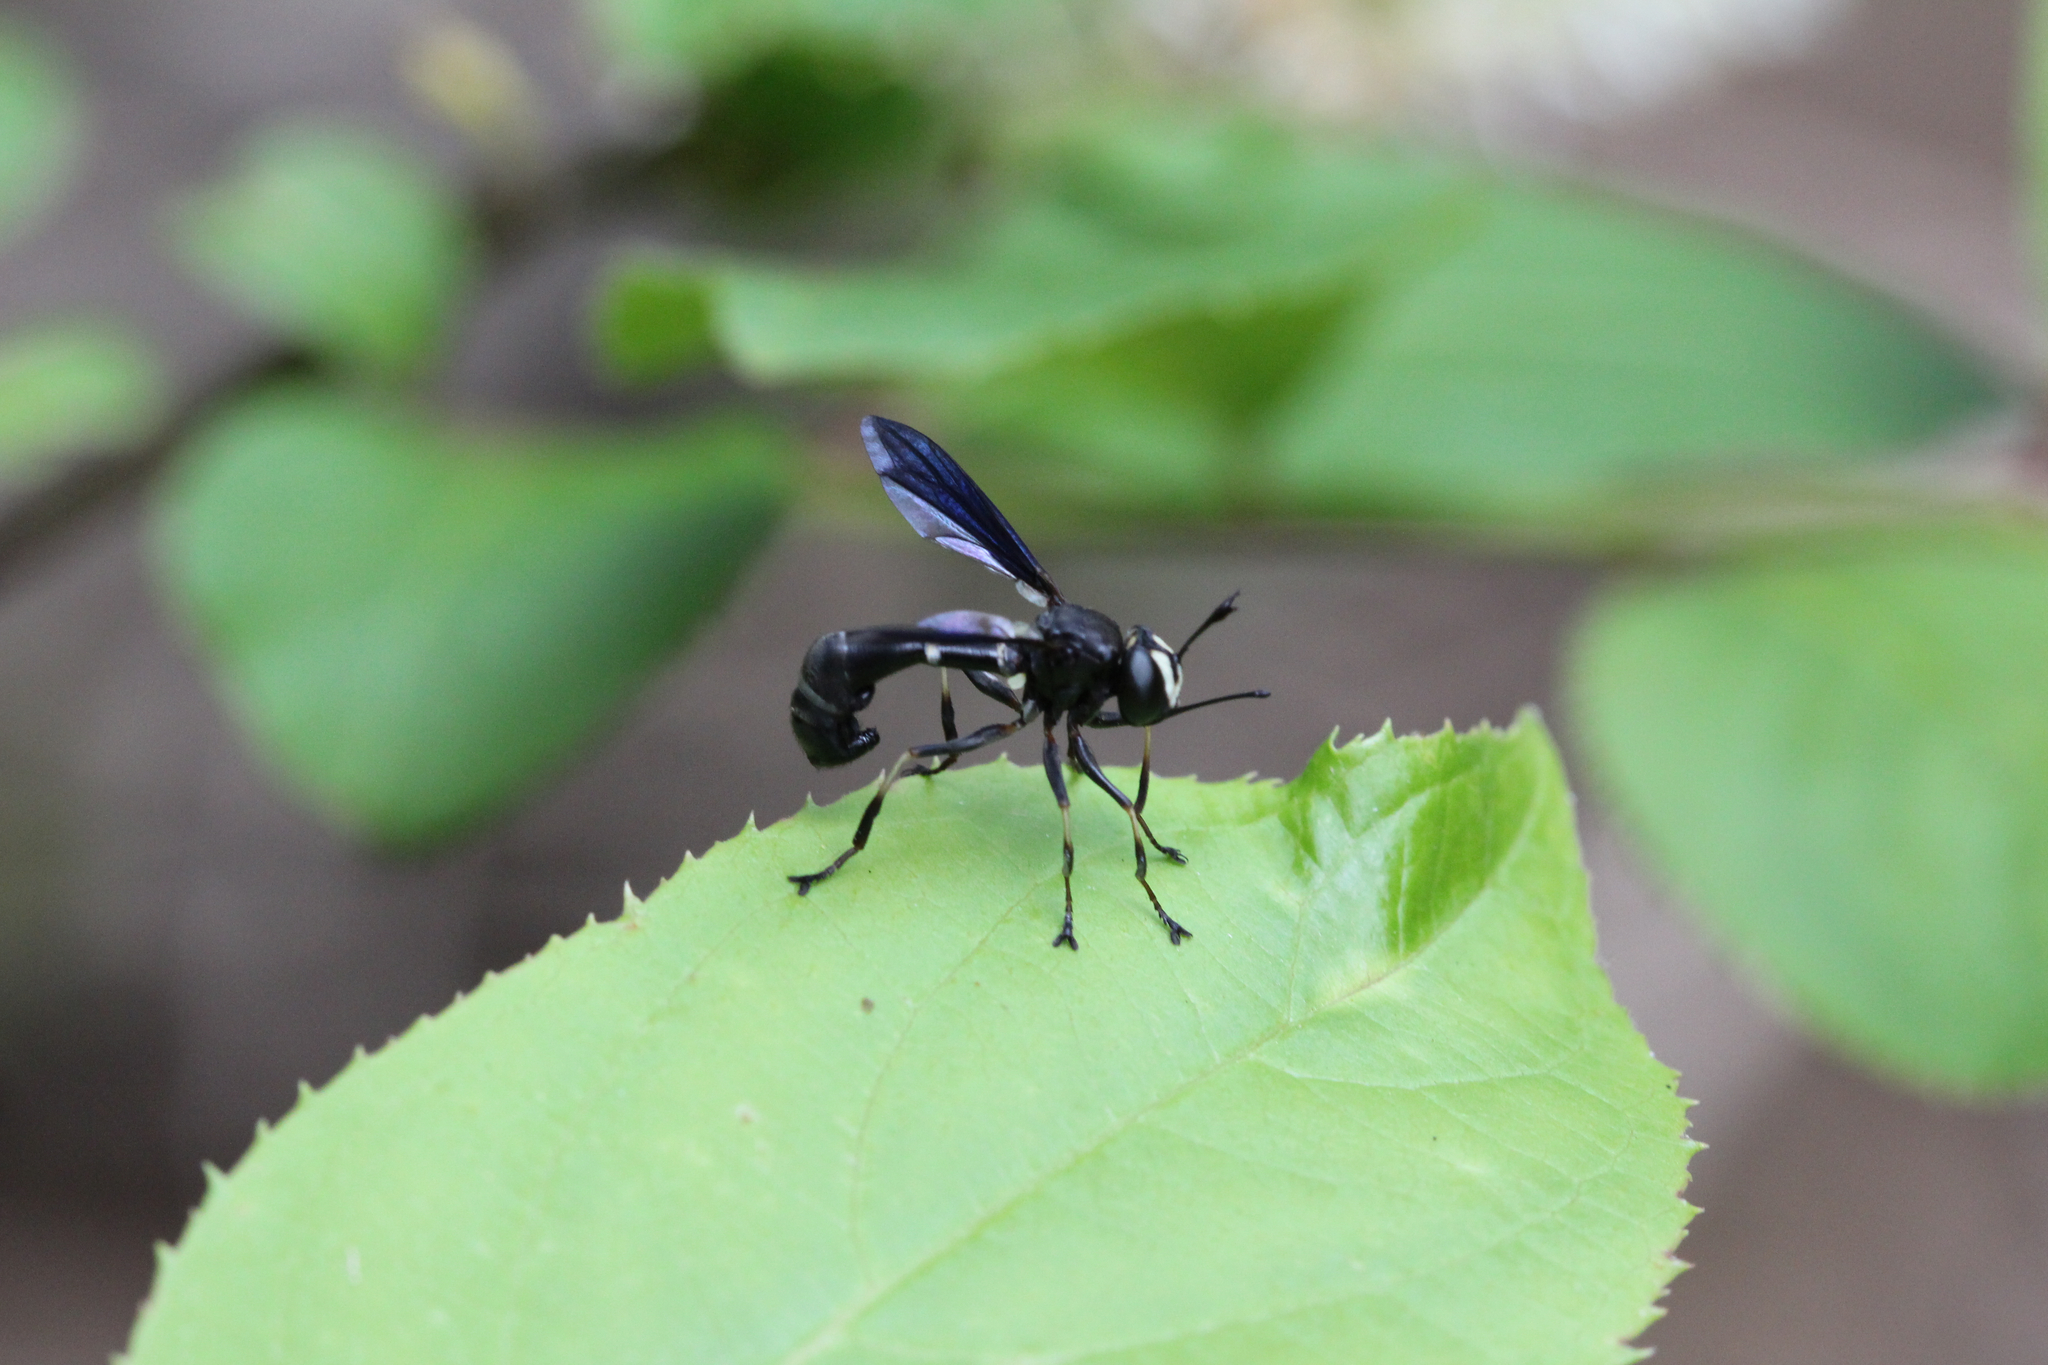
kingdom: Animalia
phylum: Arthropoda
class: Insecta
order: Diptera
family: Conopidae
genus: Physocephala
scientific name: Physocephala tibialis
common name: Common eastern physocephala
